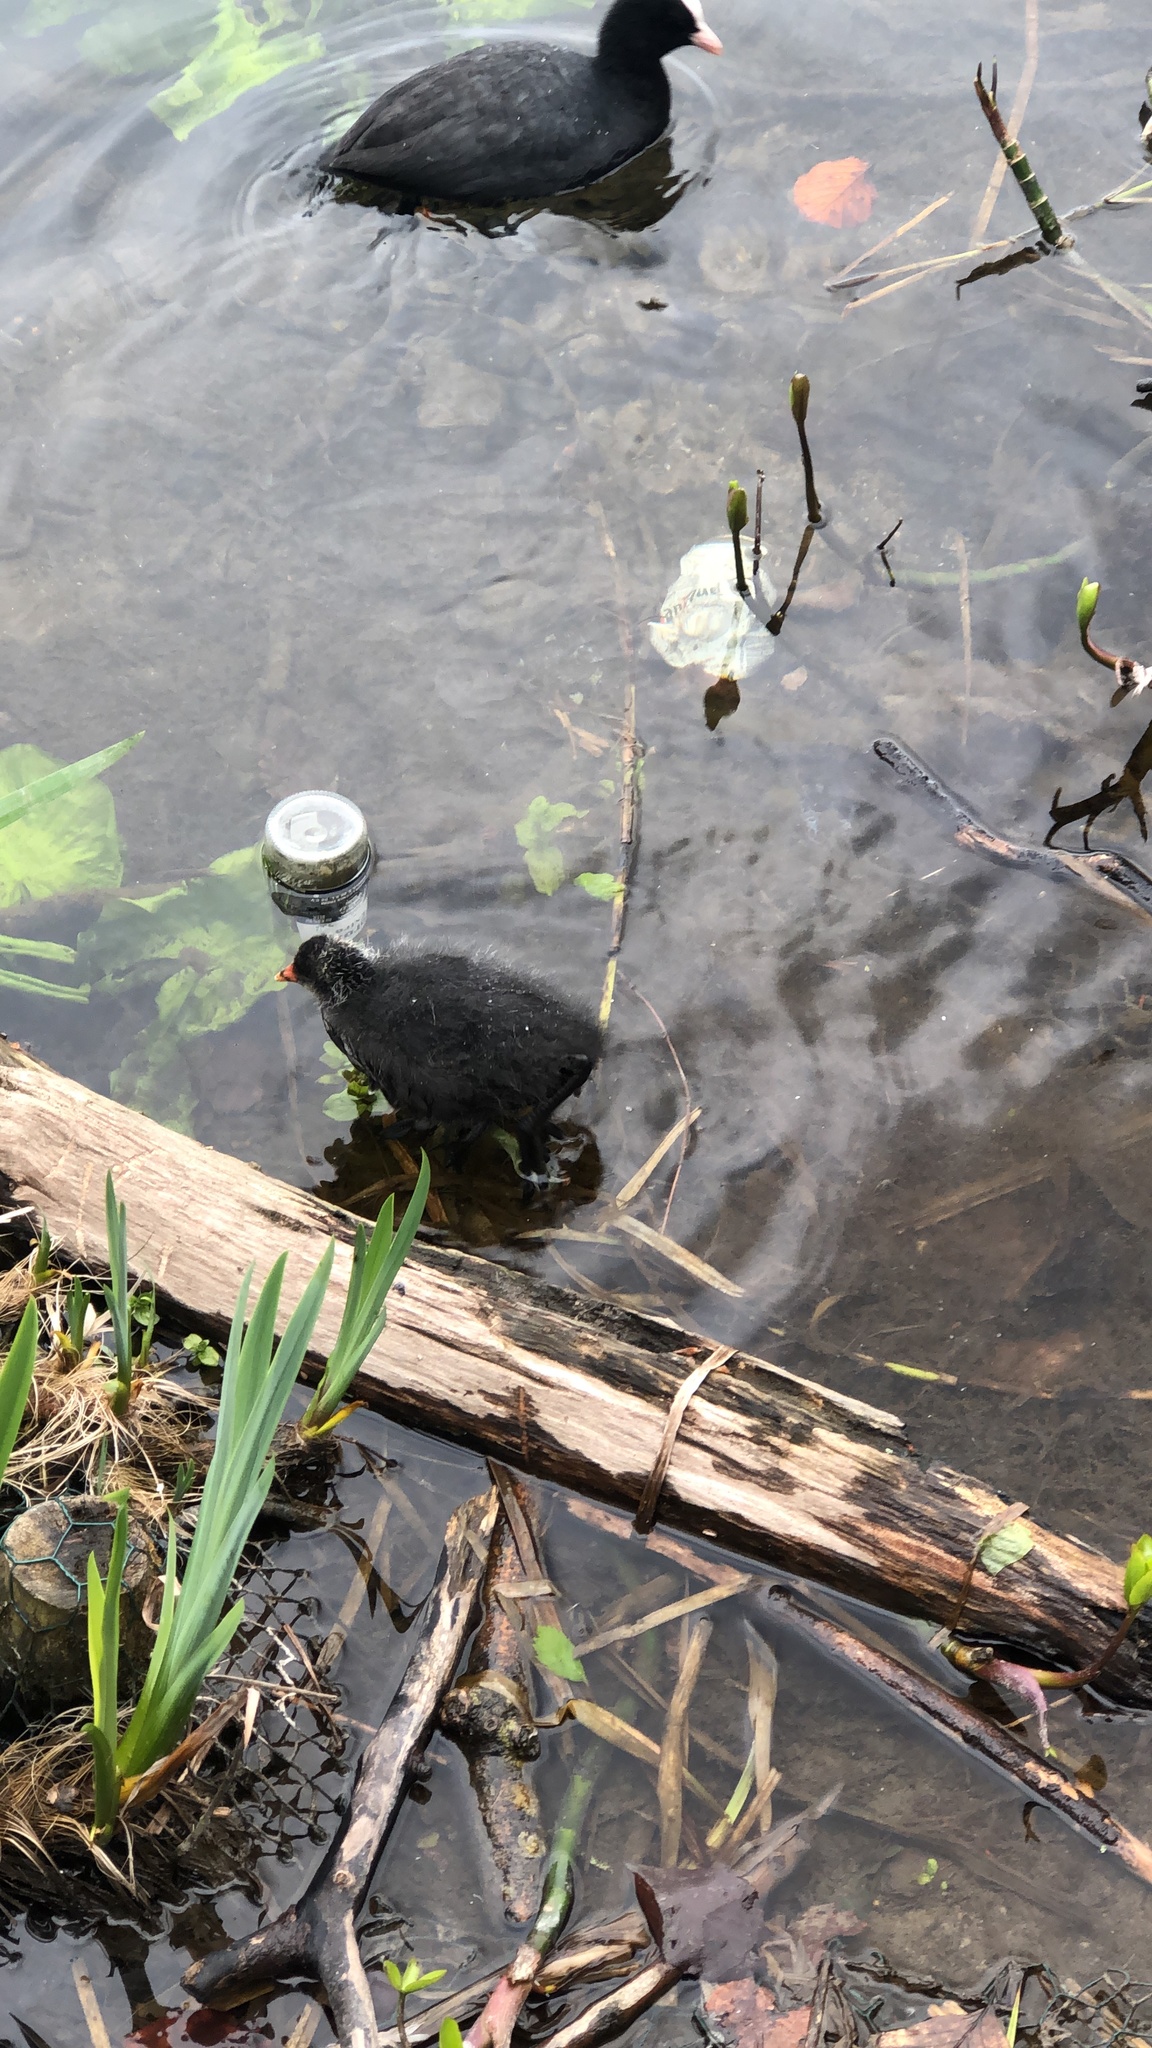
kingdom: Animalia
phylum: Chordata
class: Aves
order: Gruiformes
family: Rallidae
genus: Fulica
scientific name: Fulica atra
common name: Eurasian coot
